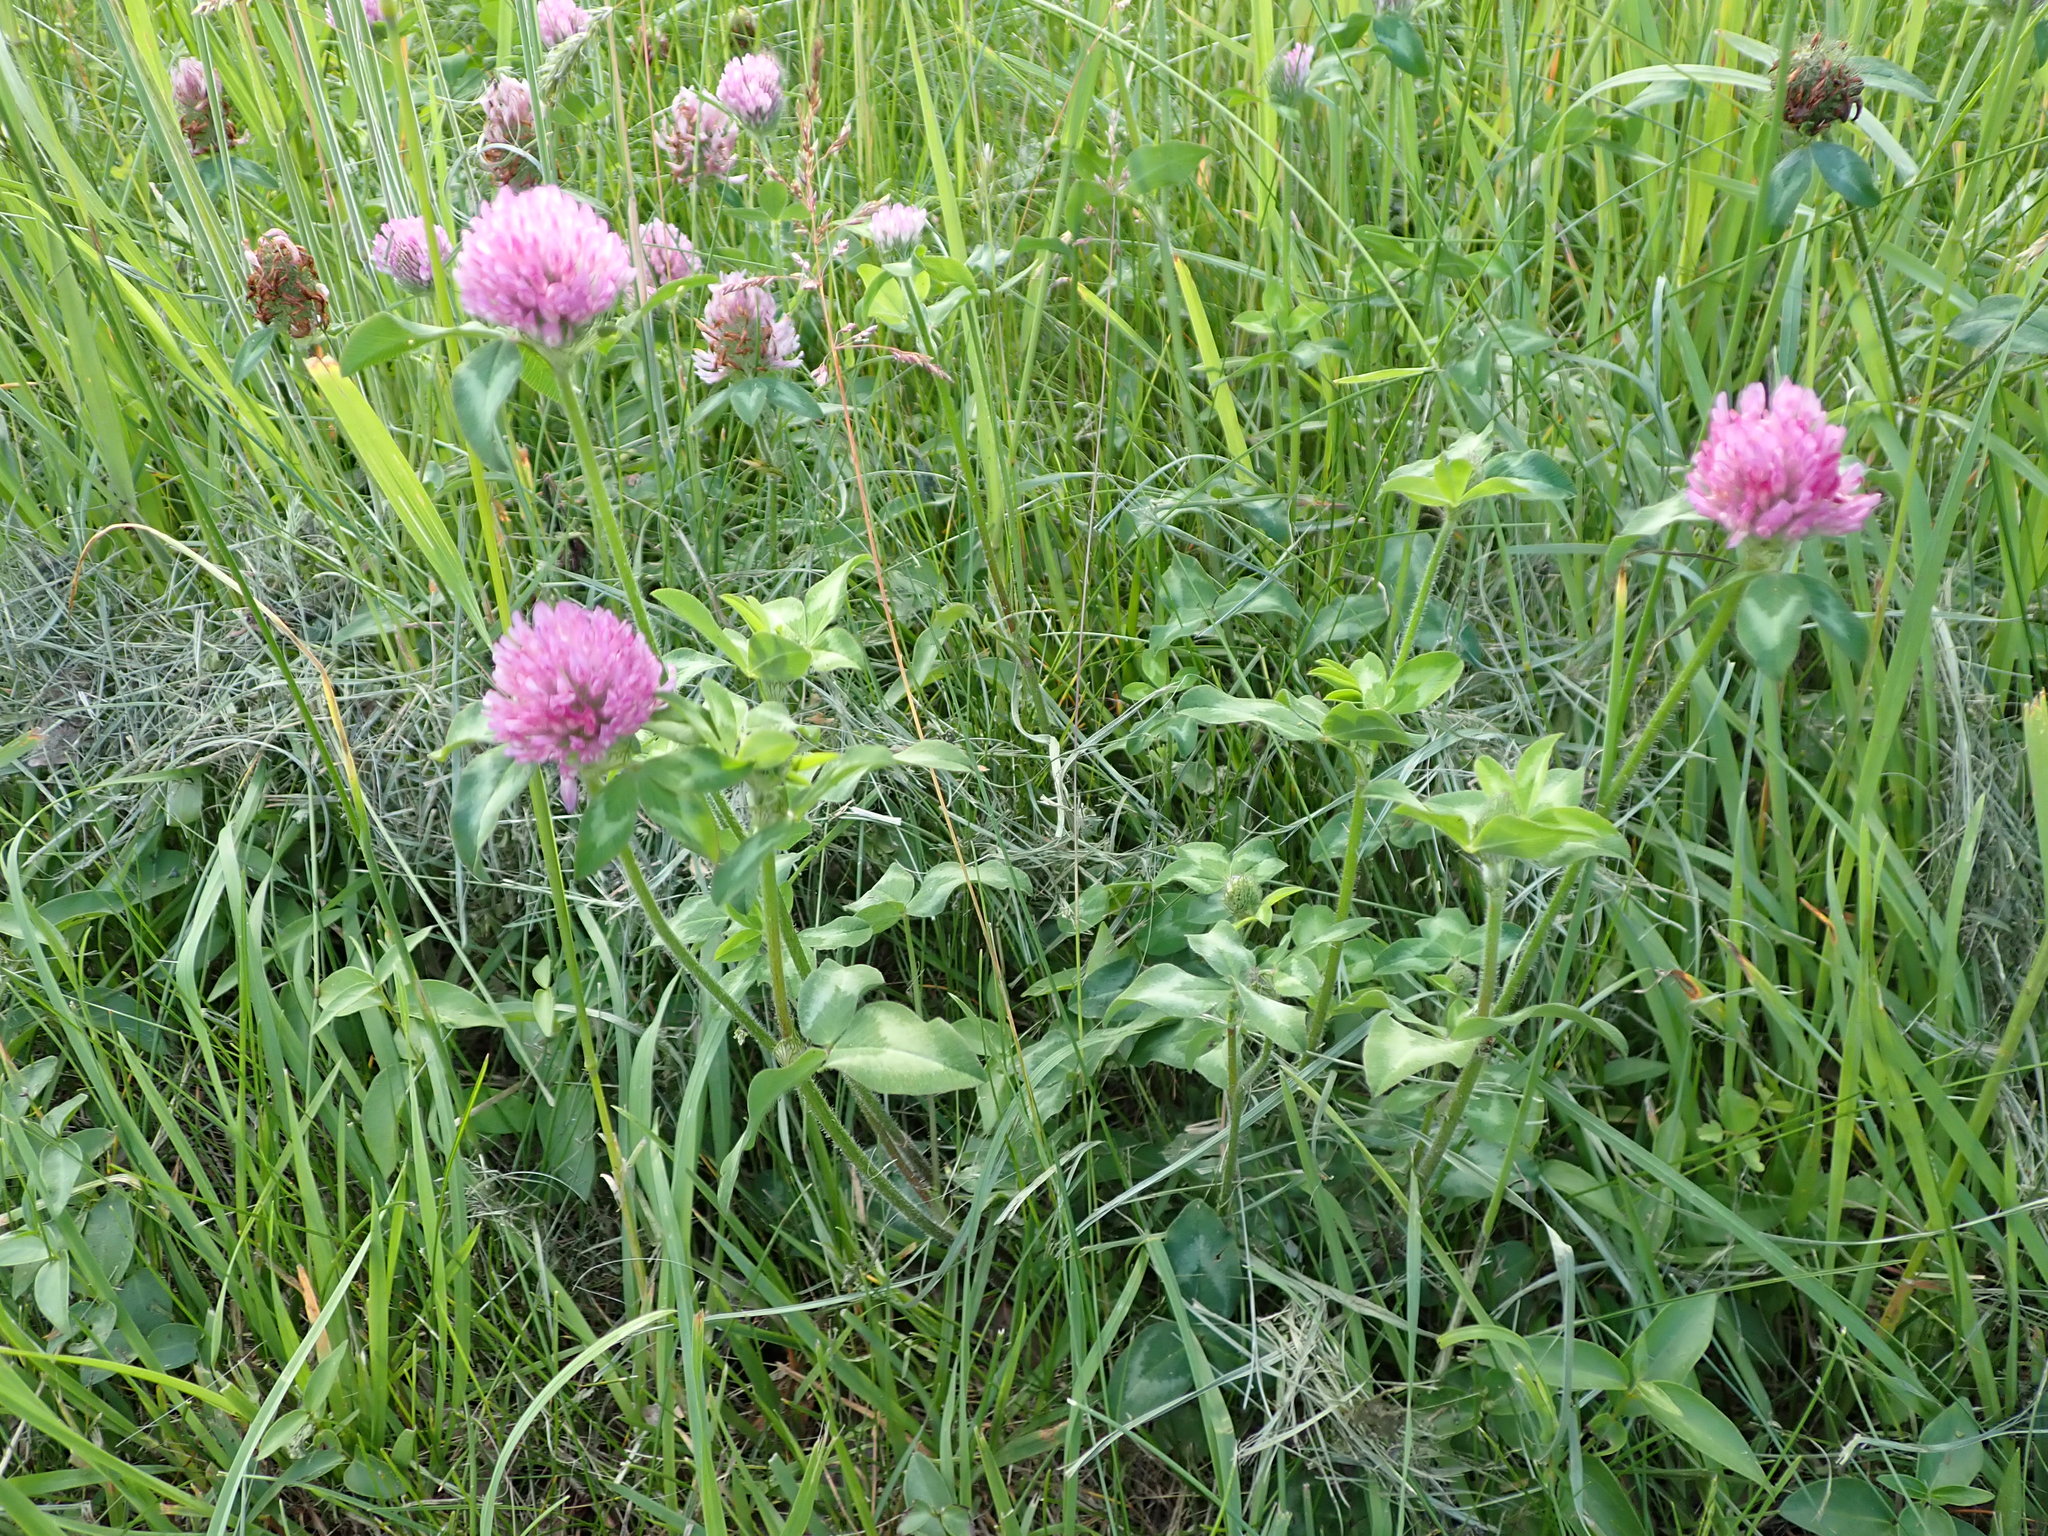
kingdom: Plantae
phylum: Tracheophyta
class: Magnoliopsida
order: Fabales
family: Fabaceae
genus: Trifolium
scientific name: Trifolium pratense
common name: Red clover
